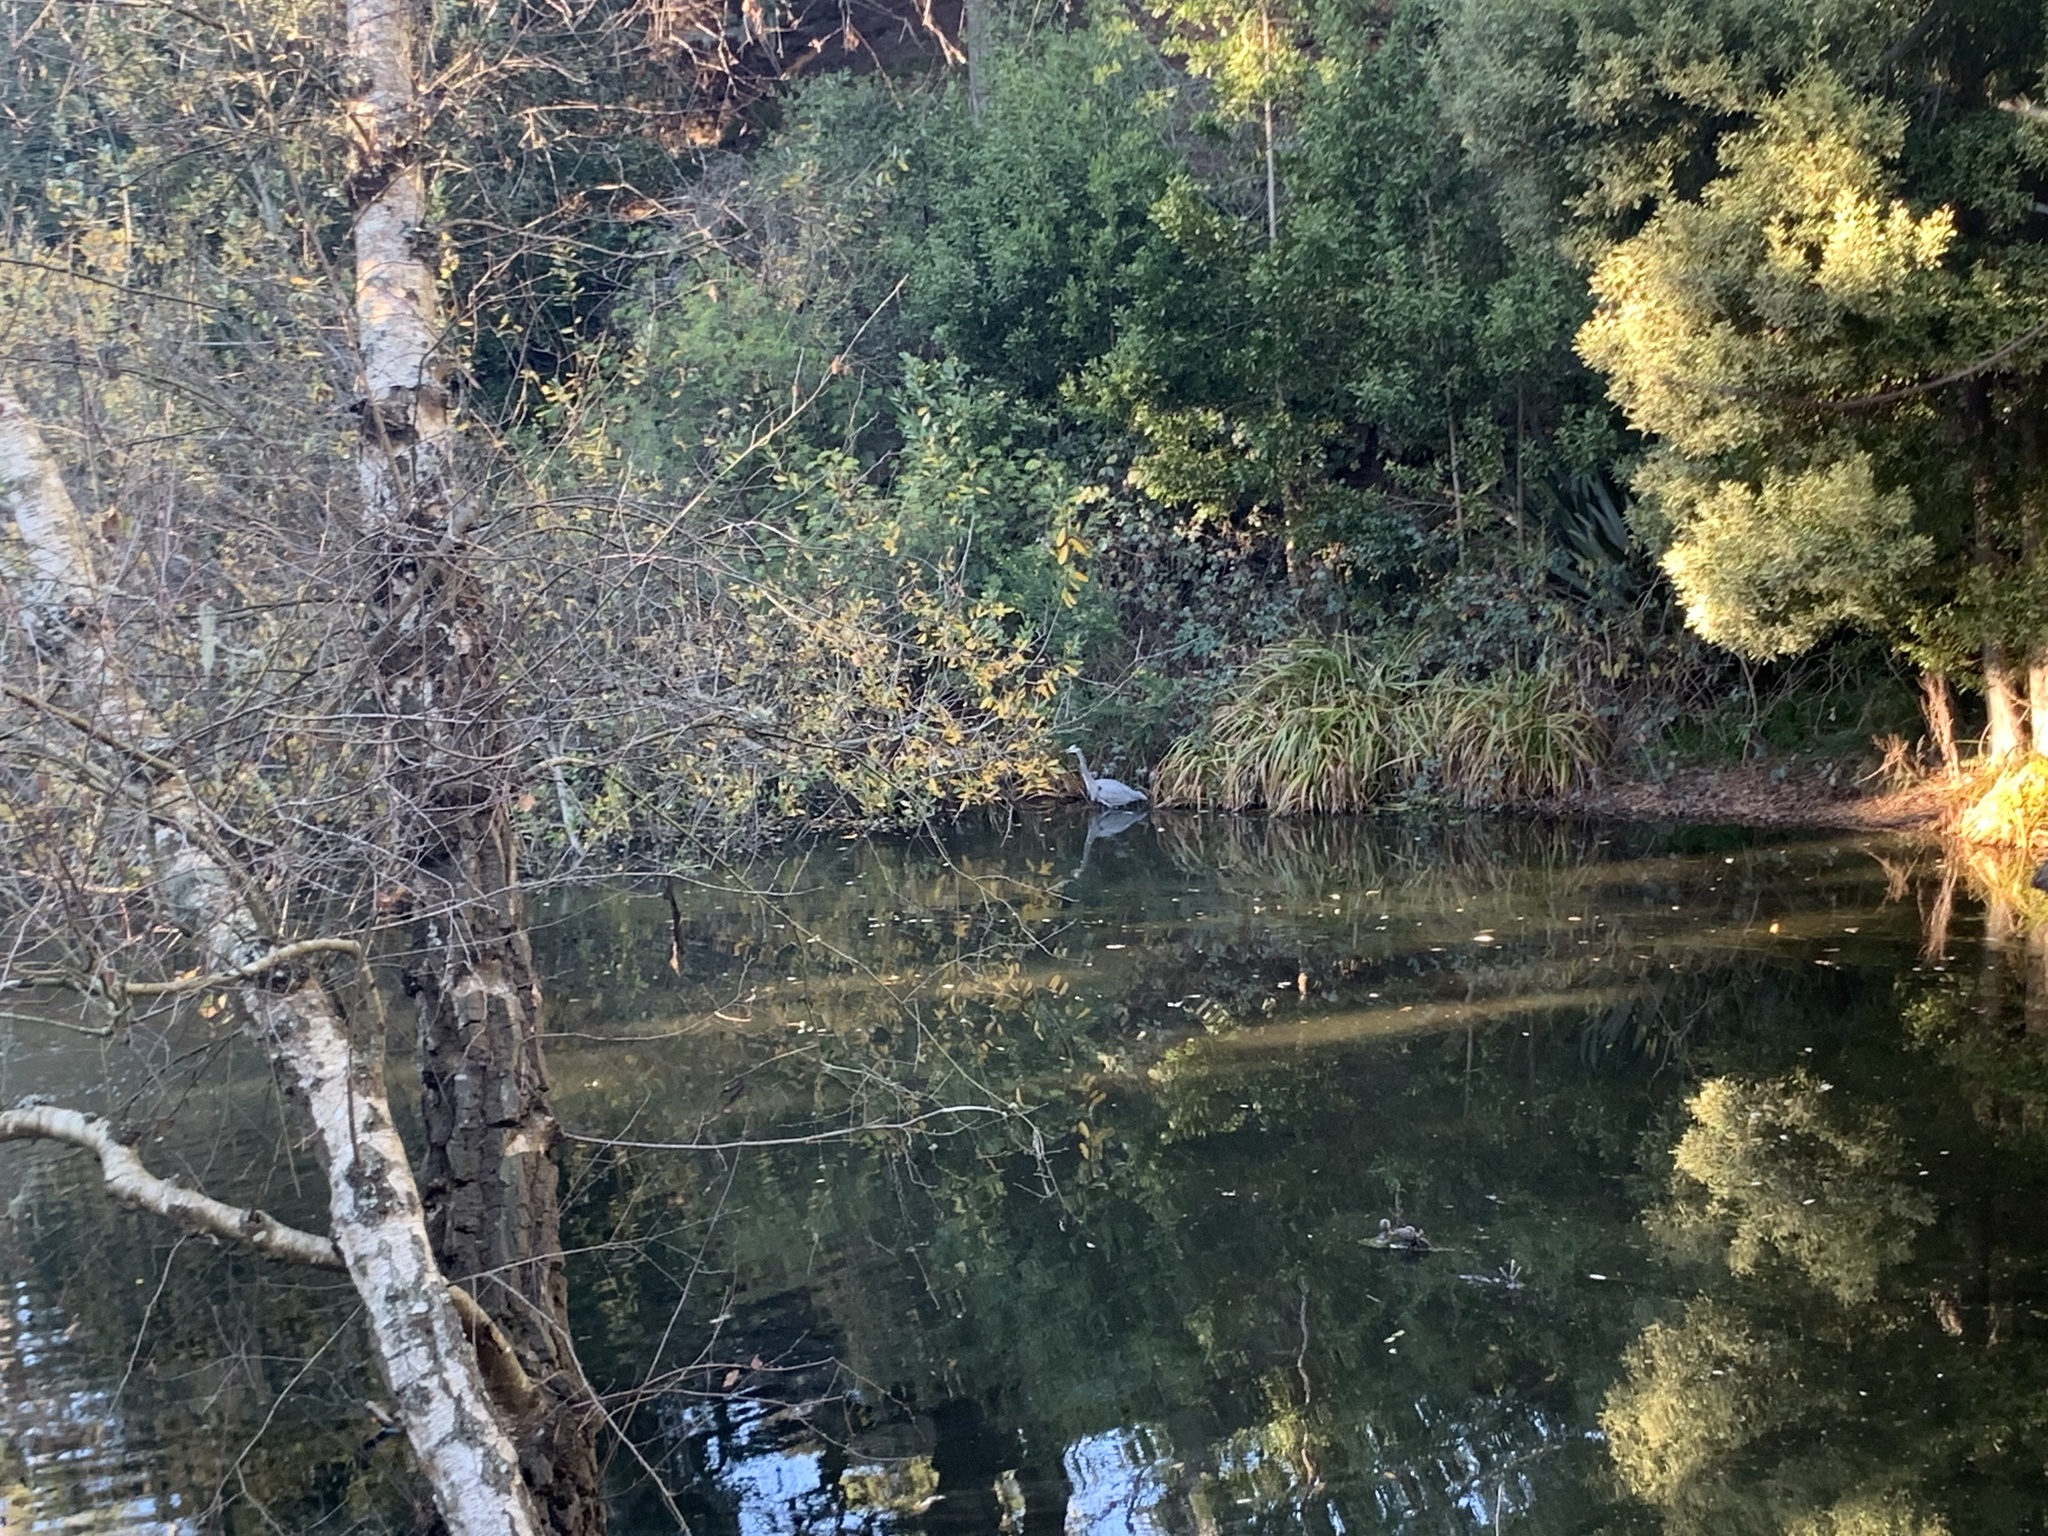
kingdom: Animalia
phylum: Chordata
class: Aves
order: Pelecaniformes
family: Ardeidae
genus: Ardea
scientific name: Ardea herodias
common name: Great blue heron
